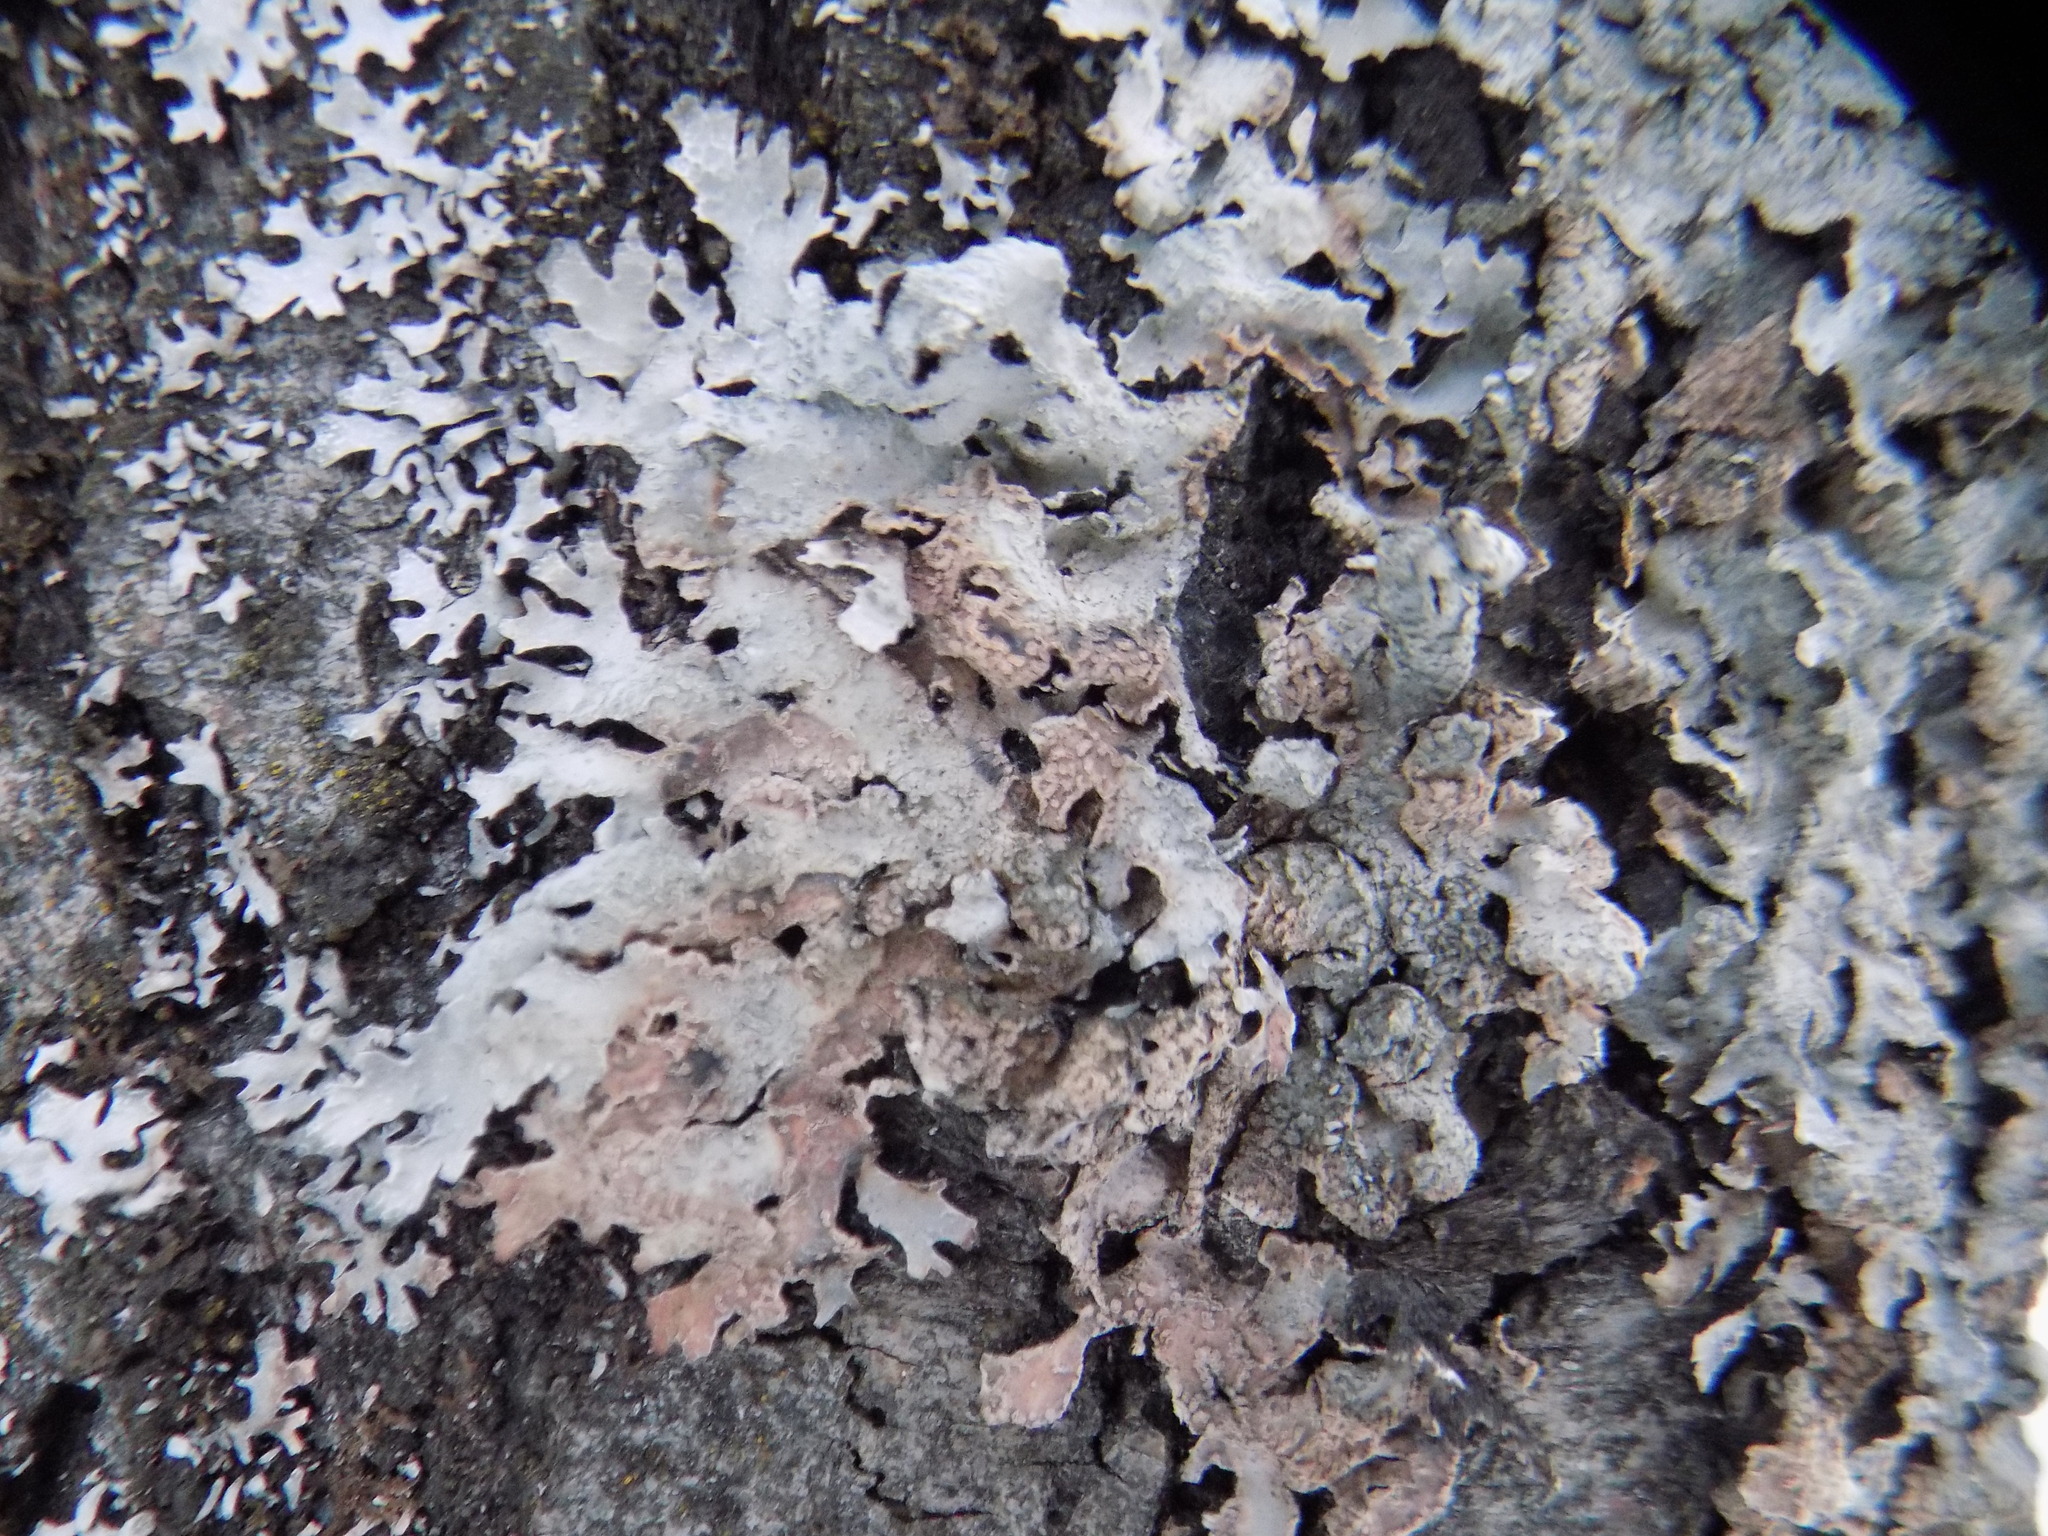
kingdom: Fungi
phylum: Ascomycota
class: Lecanoromycetes
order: Lecanorales
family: Parmeliaceae
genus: Parmelia
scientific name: Parmelia sulcata
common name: Netted shield lichen
